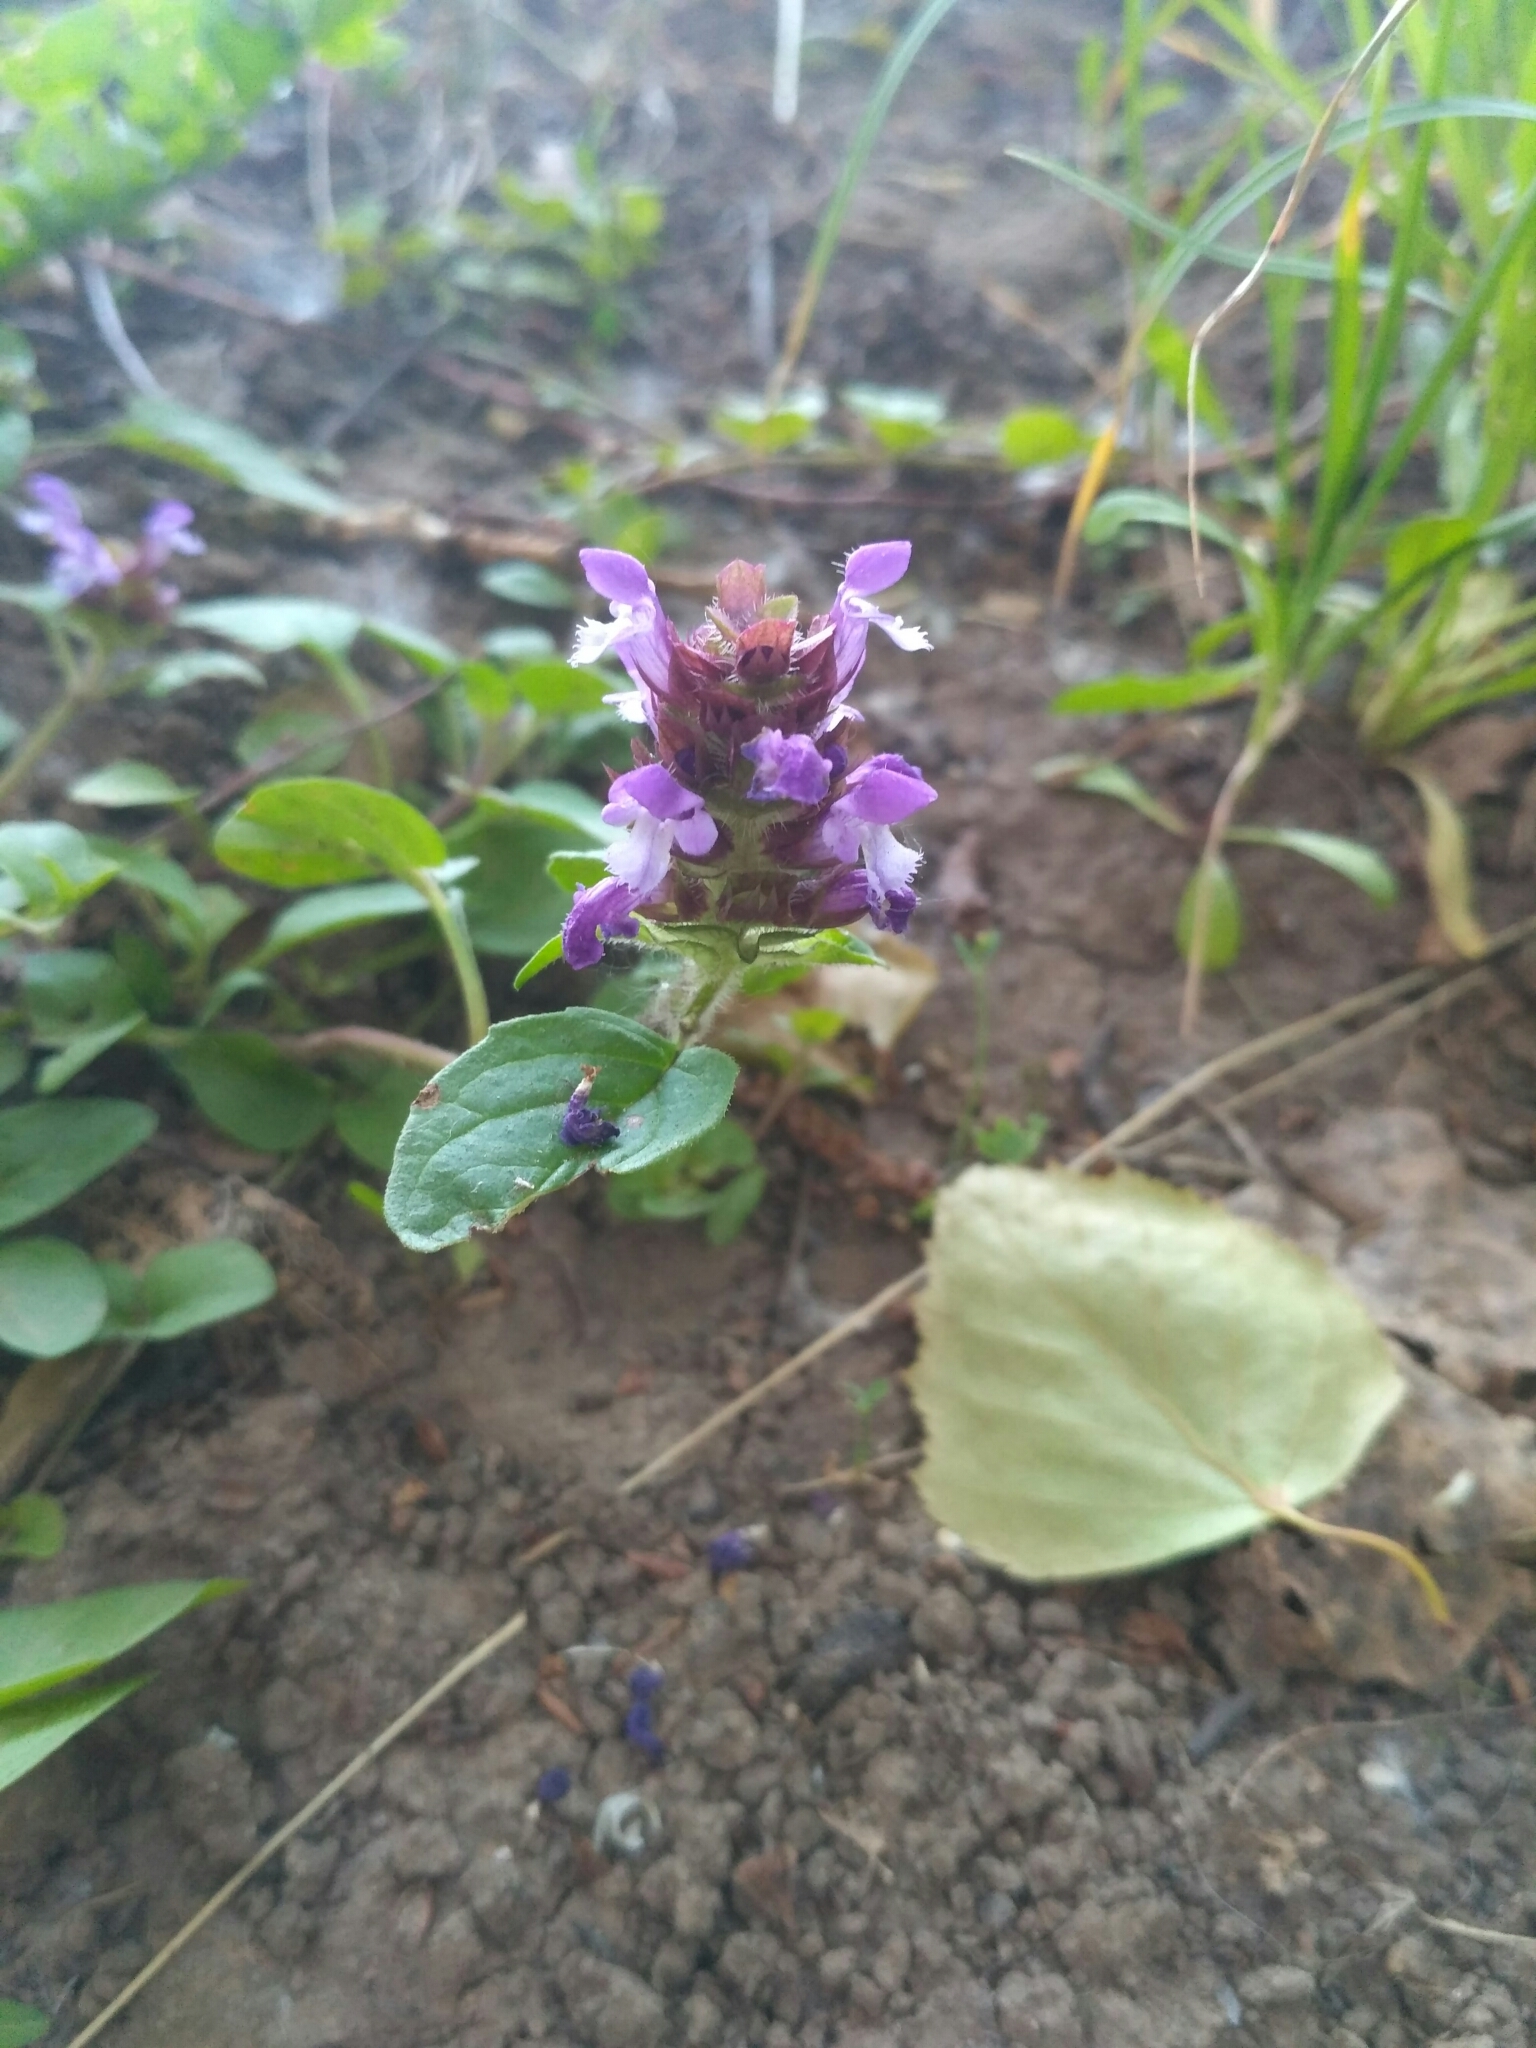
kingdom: Plantae
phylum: Tracheophyta
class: Magnoliopsida
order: Lamiales
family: Lamiaceae
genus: Prunella
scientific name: Prunella vulgaris
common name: Heal-all
